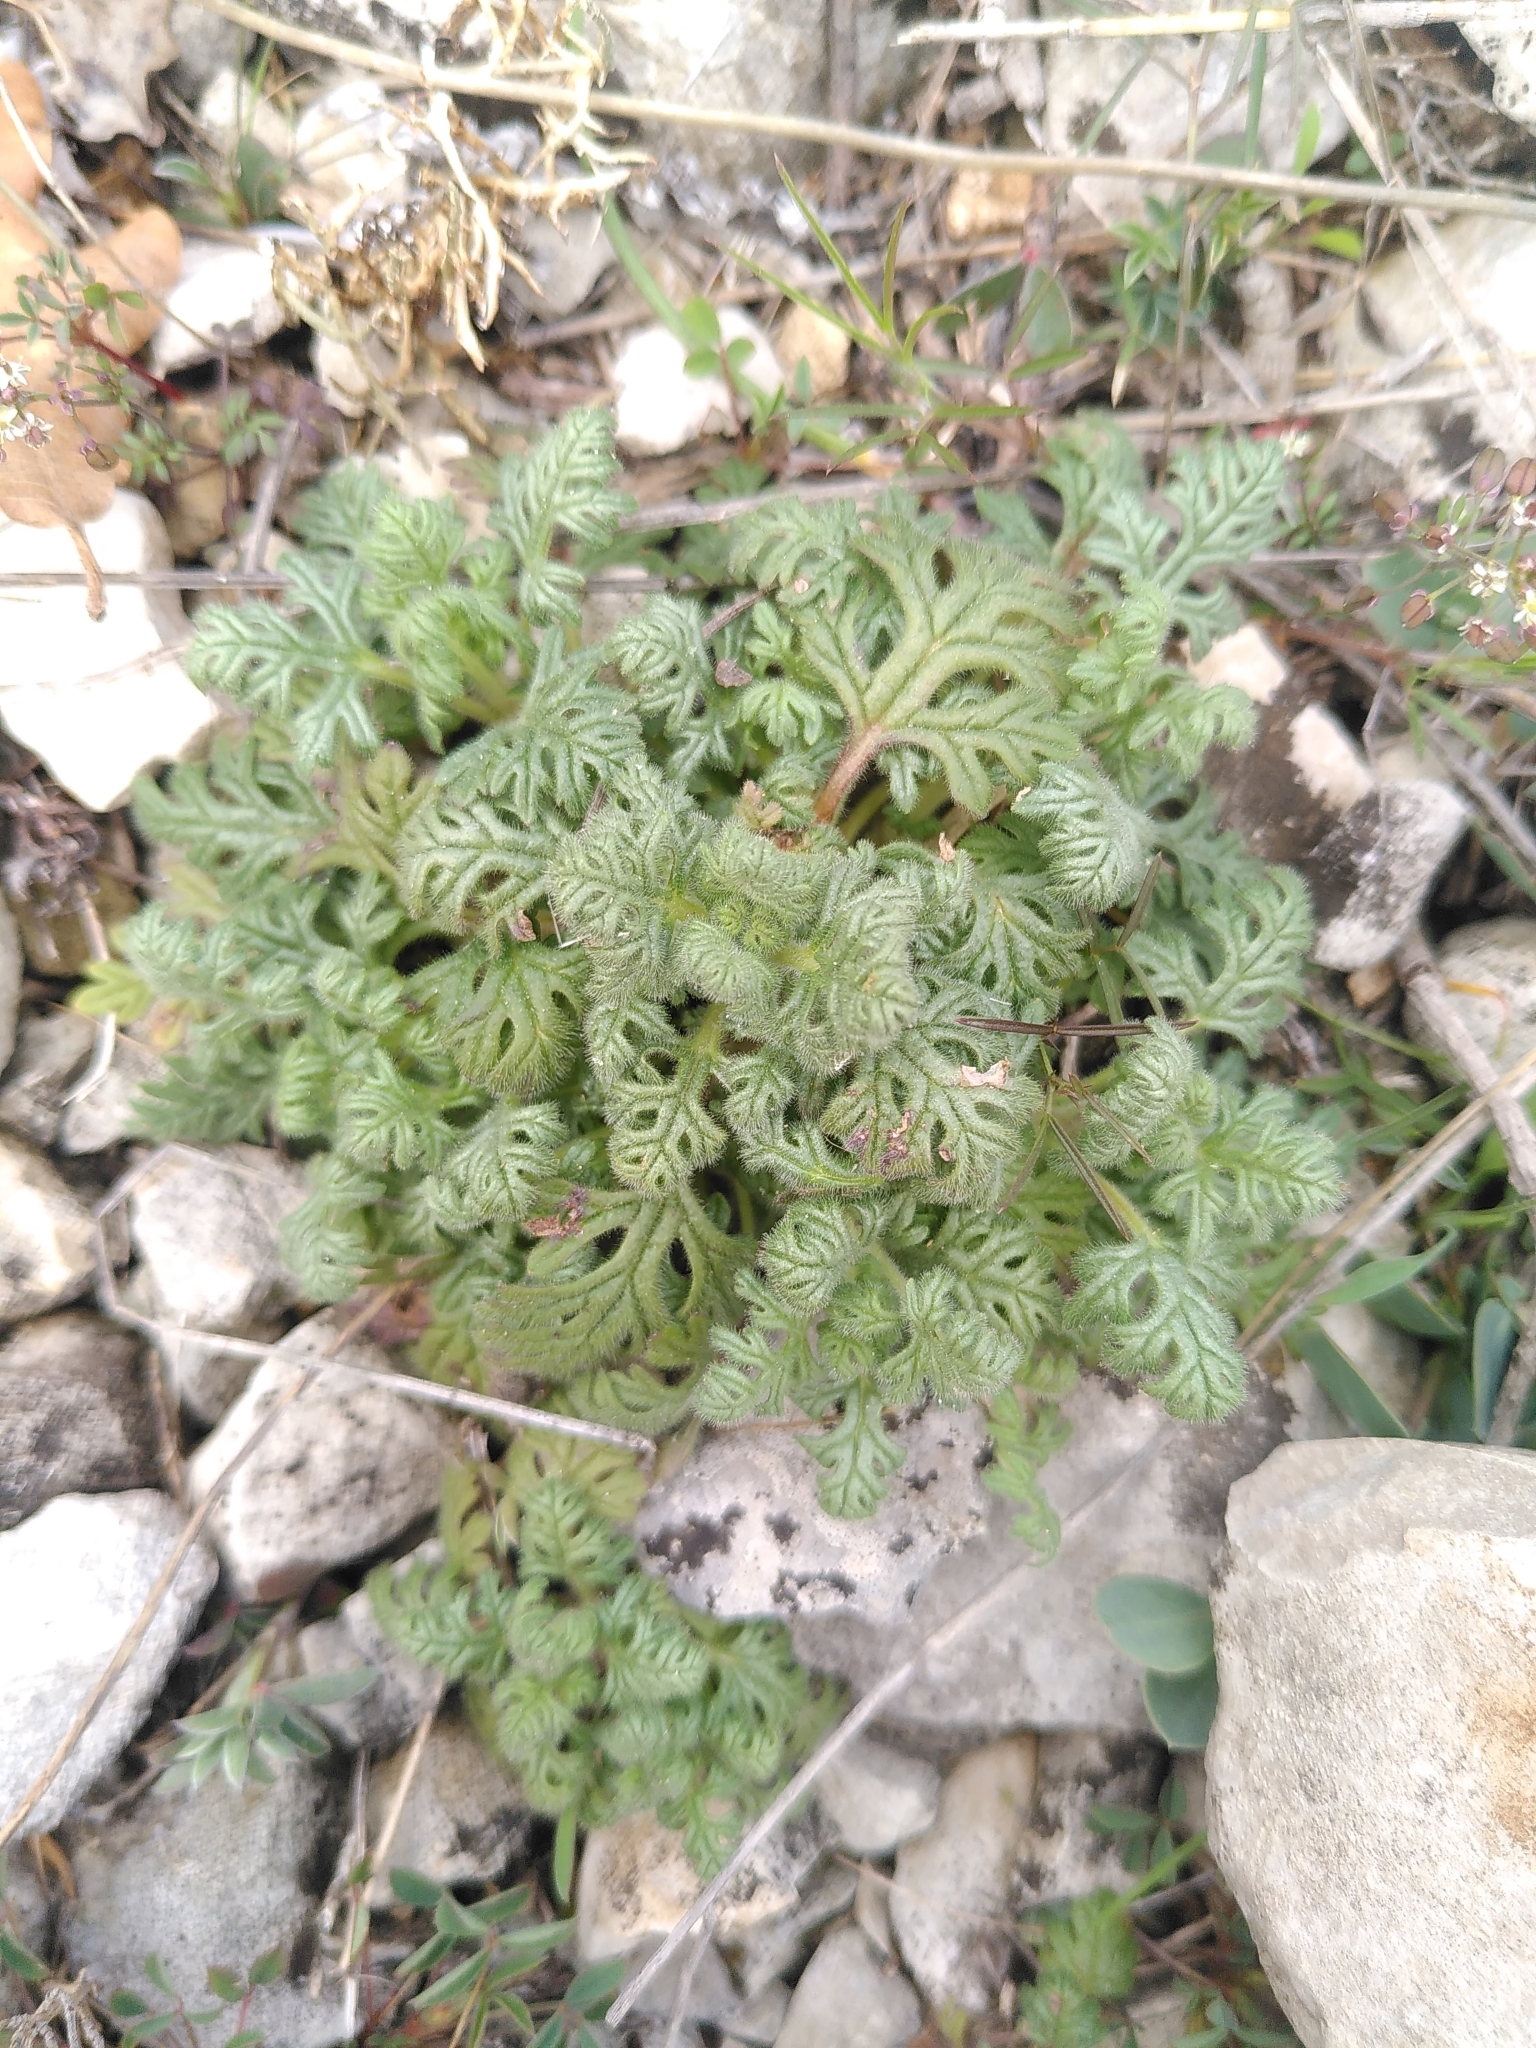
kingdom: Plantae
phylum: Tracheophyta
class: Magnoliopsida
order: Lamiales
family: Lamiaceae
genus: Teucrium
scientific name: Teucrium botrys
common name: Cut-leaved germander
